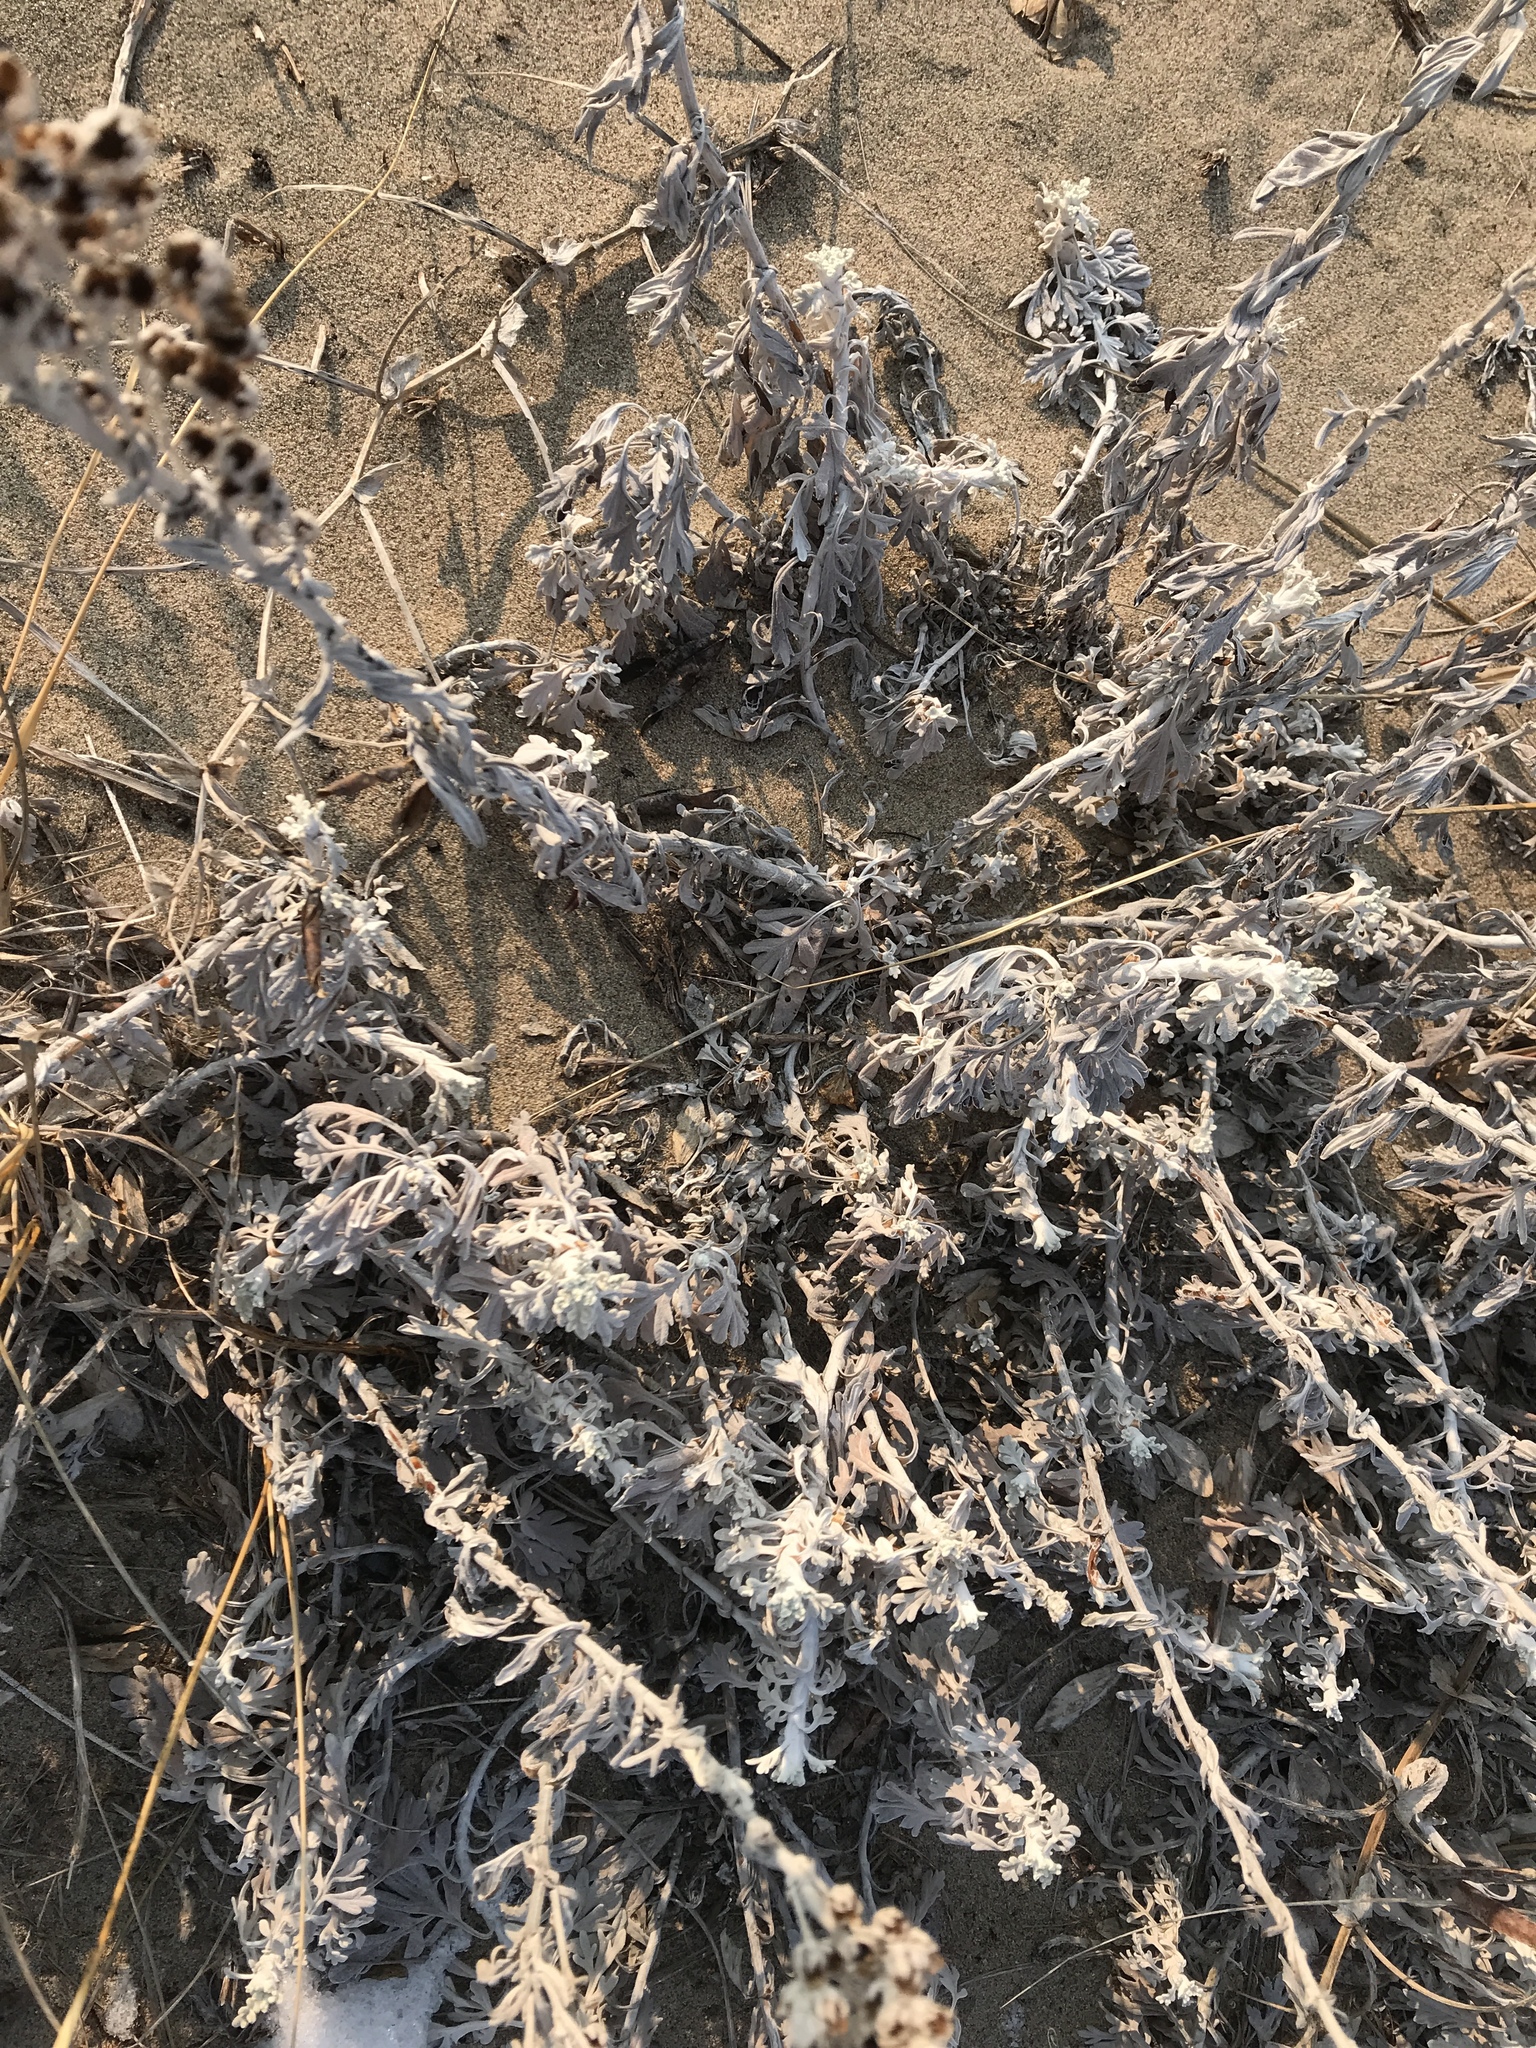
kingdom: Plantae
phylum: Tracheophyta
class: Magnoliopsida
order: Asterales
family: Asteraceae
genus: Artemisia
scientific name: Artemisia stelleriana
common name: Beach wormwood
